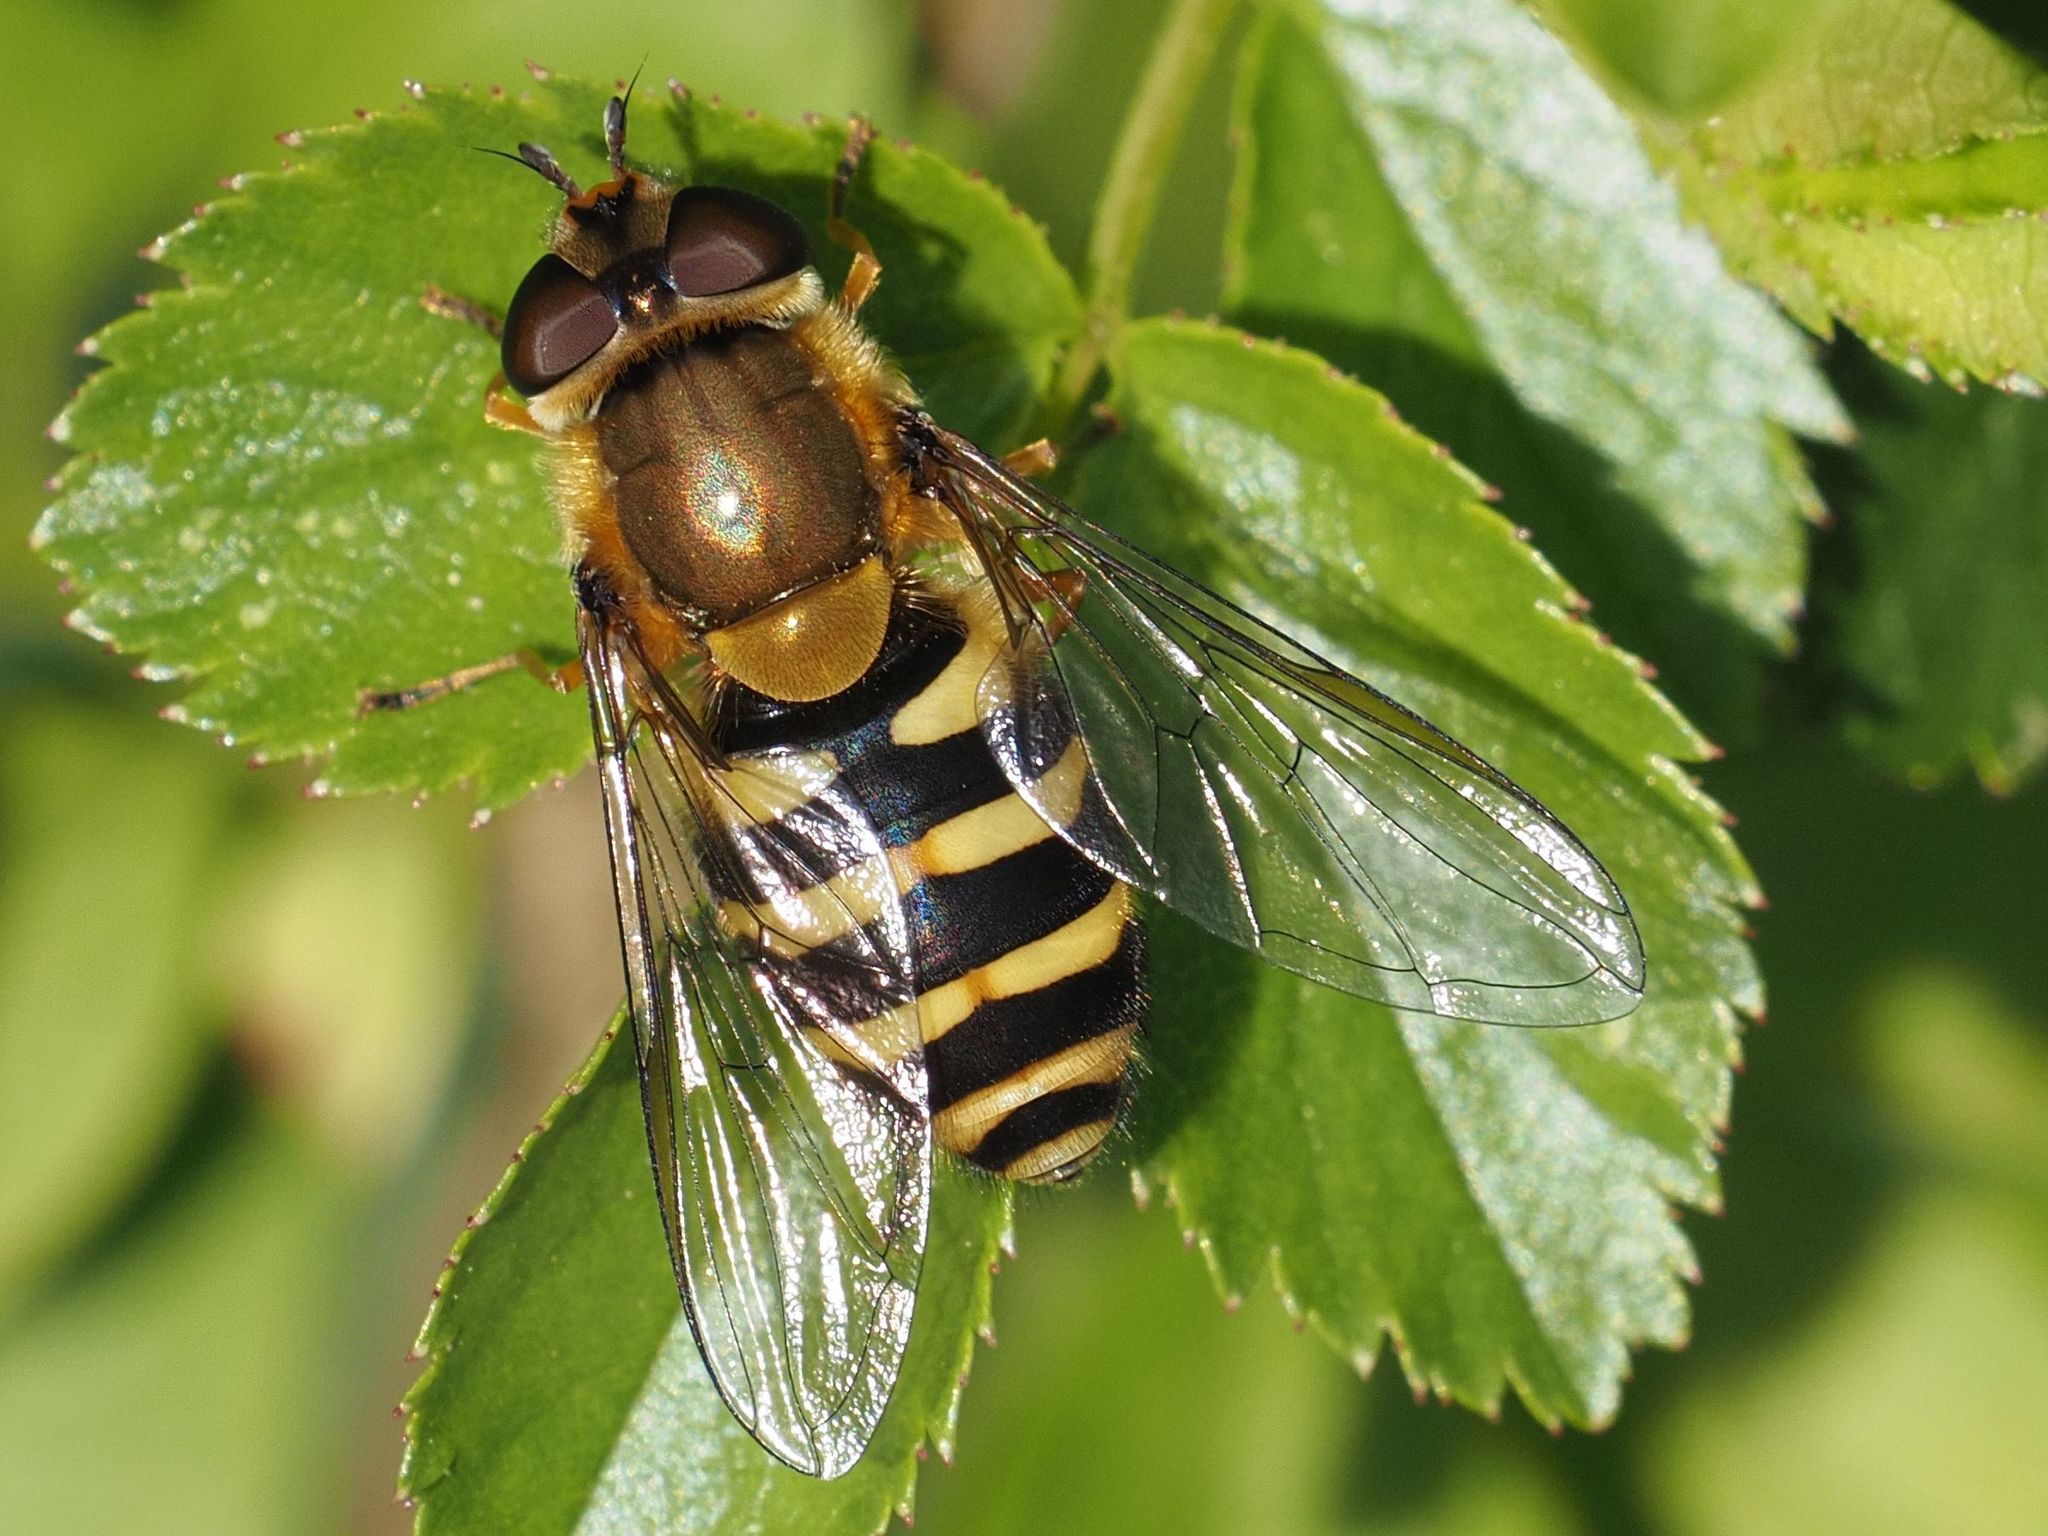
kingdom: Animalia
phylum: Arthropoda
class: Insecta
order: Diptera
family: Syrphidae
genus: Syrphus
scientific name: Syrphus
